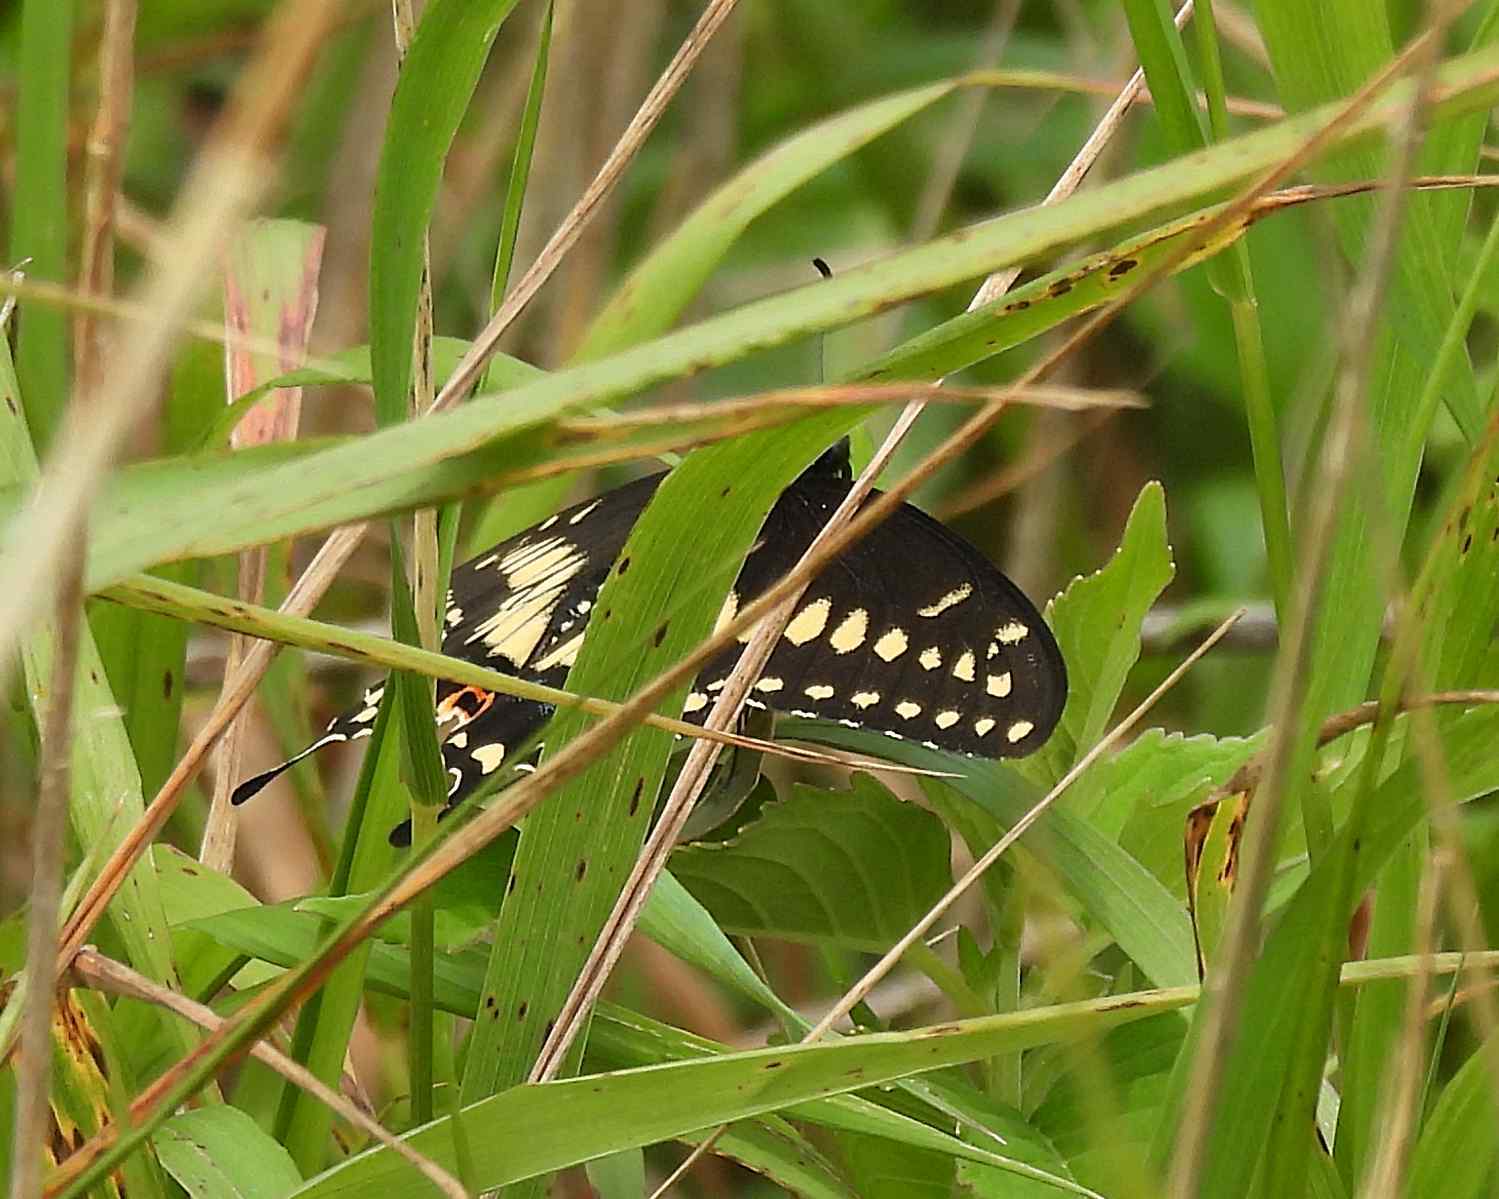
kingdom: Animalia
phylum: Arthropoda
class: Insecta
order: Lepidoptera
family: Papilionidae
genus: Papilio
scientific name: Papilio polyxenes
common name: Black swallowtail
